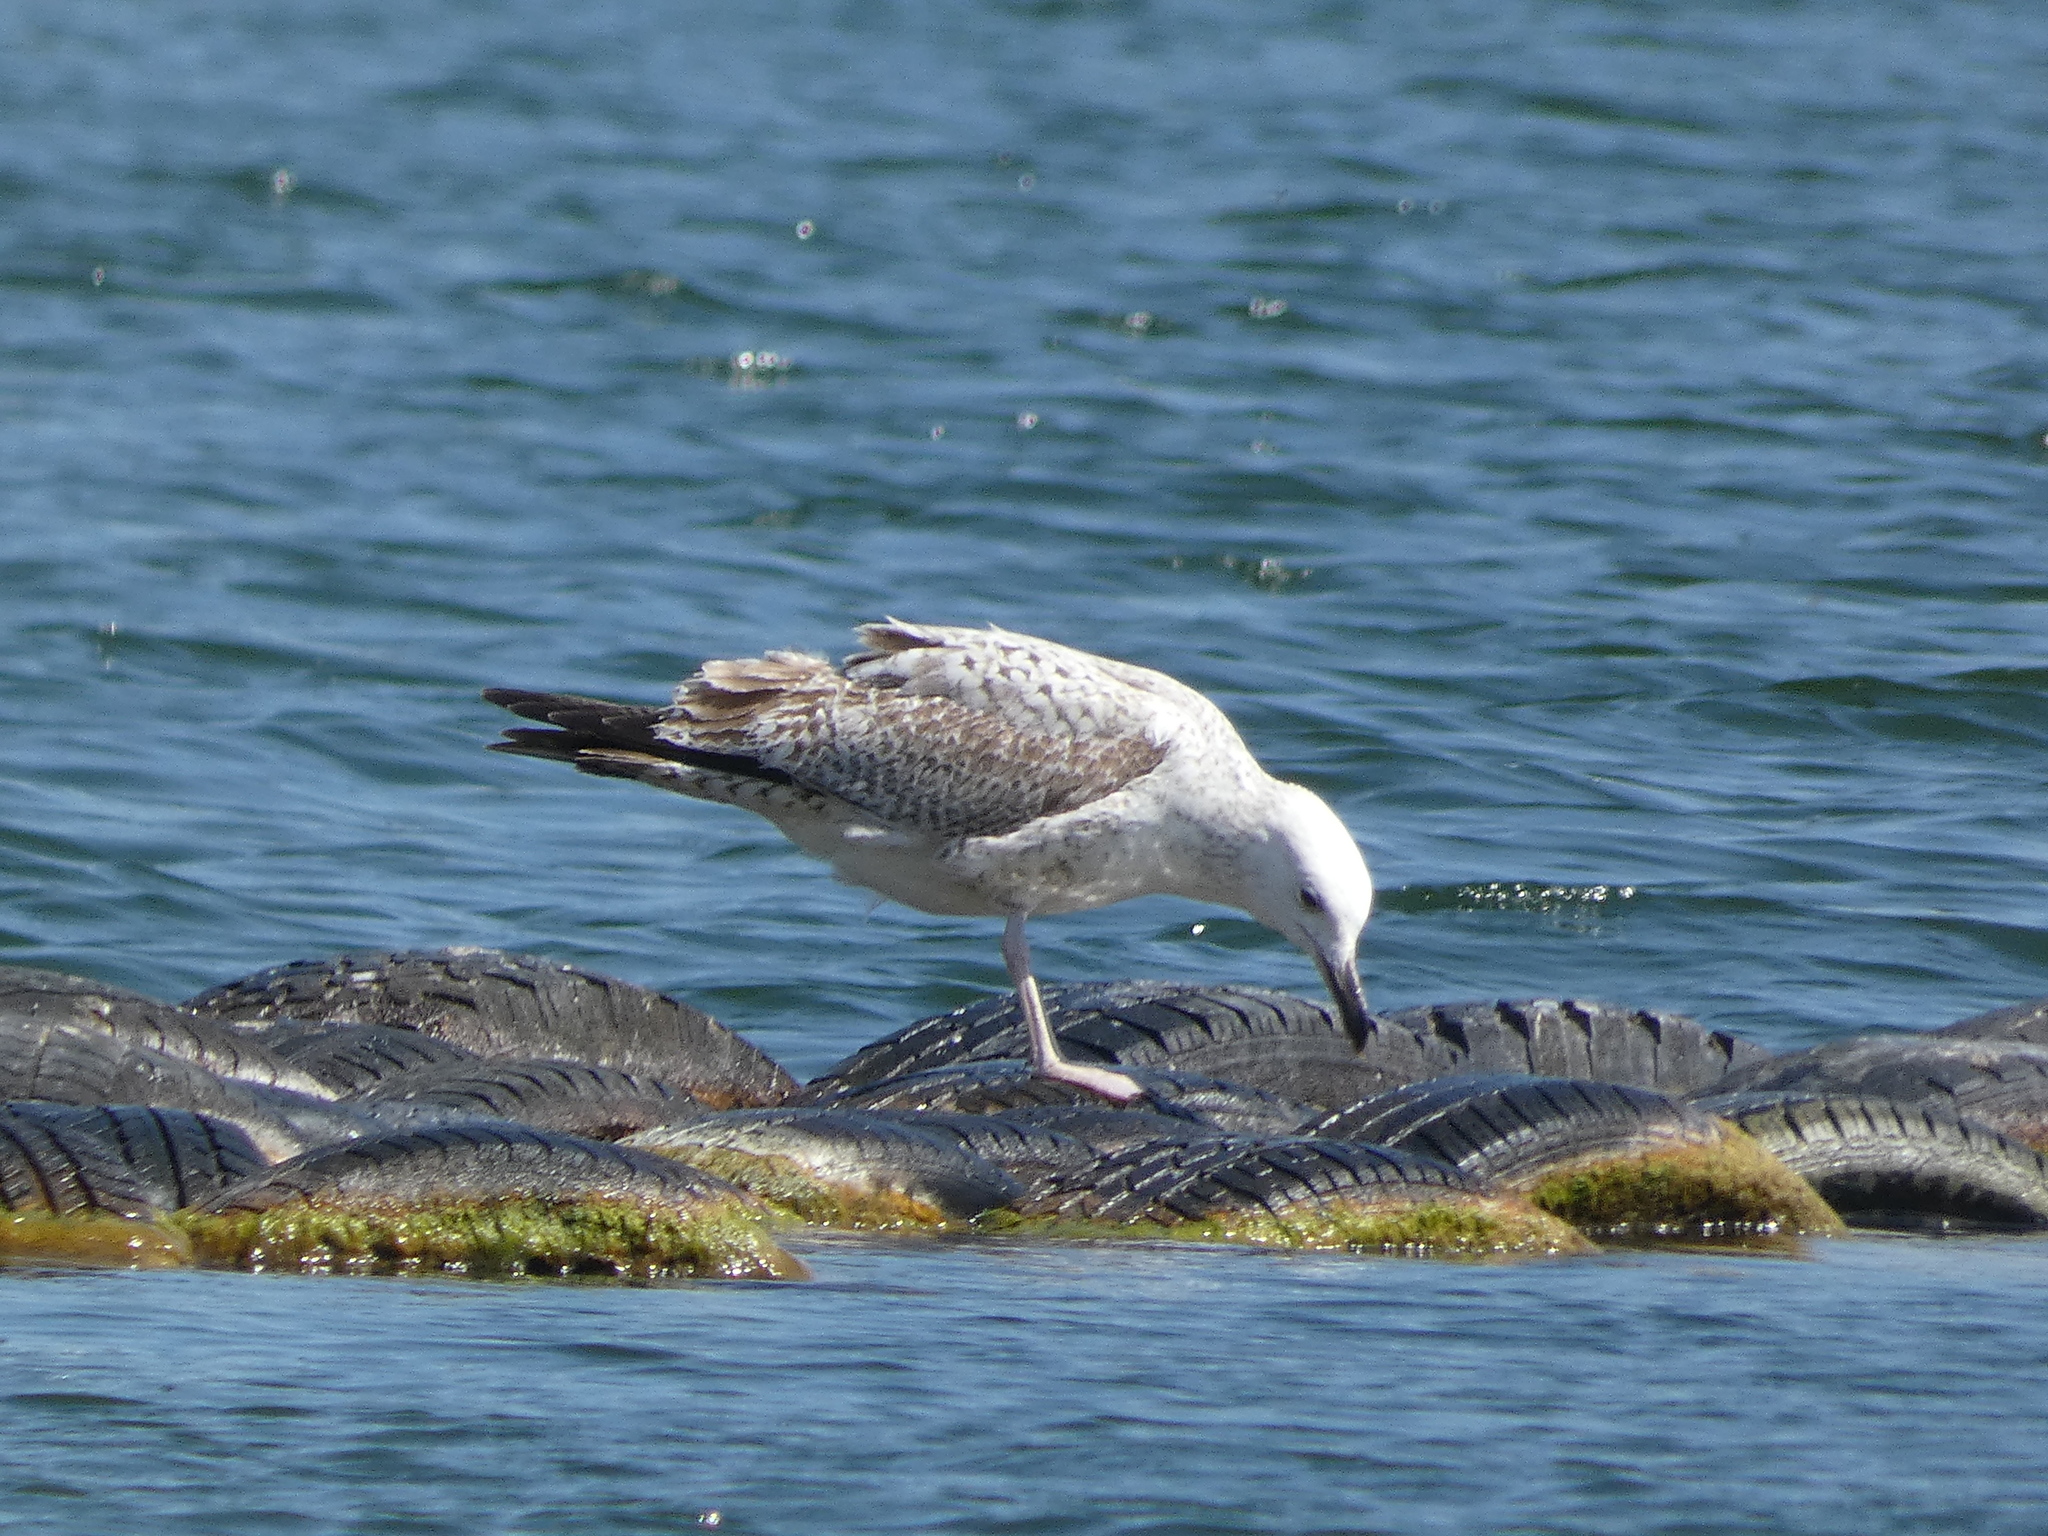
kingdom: Animalia
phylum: Chordata
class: Aves
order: Charadriiformes
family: Laridae
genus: Larus
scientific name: Larus argentatus
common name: Herring gull
